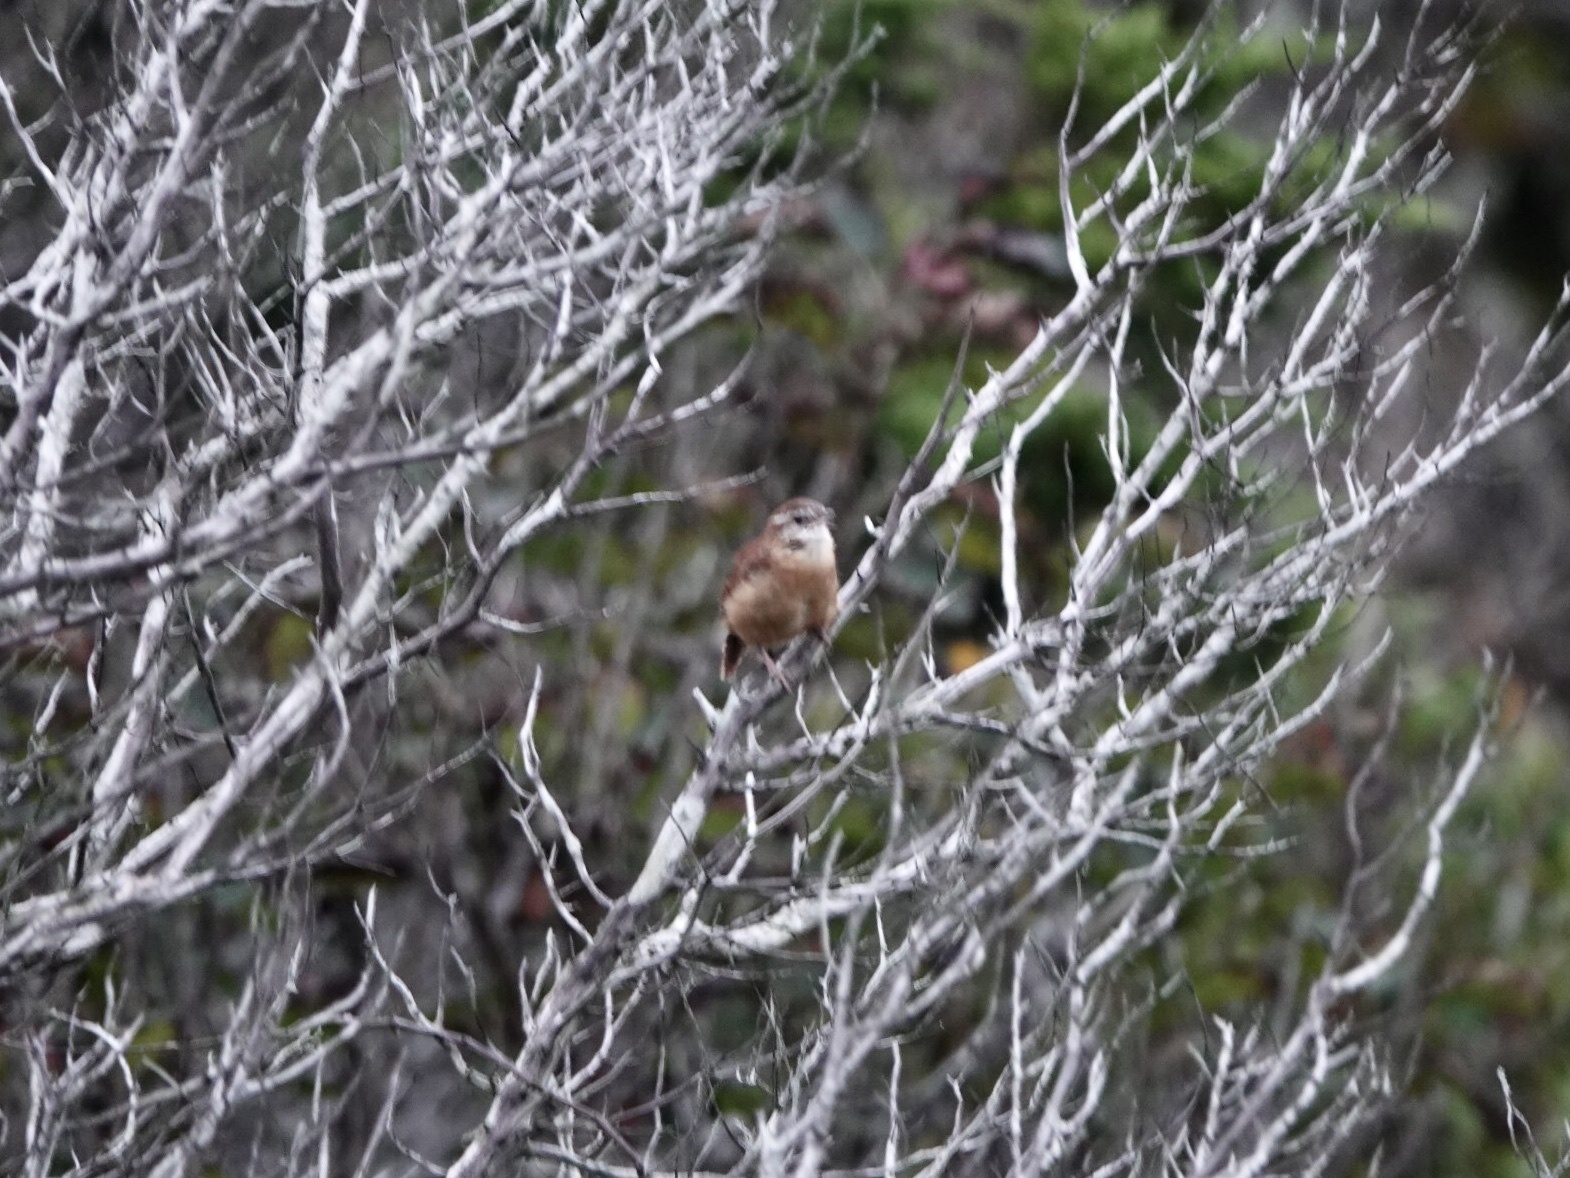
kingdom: Animalia
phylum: Chordata
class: Aves
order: Passeriformes
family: Troglodytidae
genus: Thryothorus
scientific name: Thryothorus ludovicianus
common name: Carolina wren
